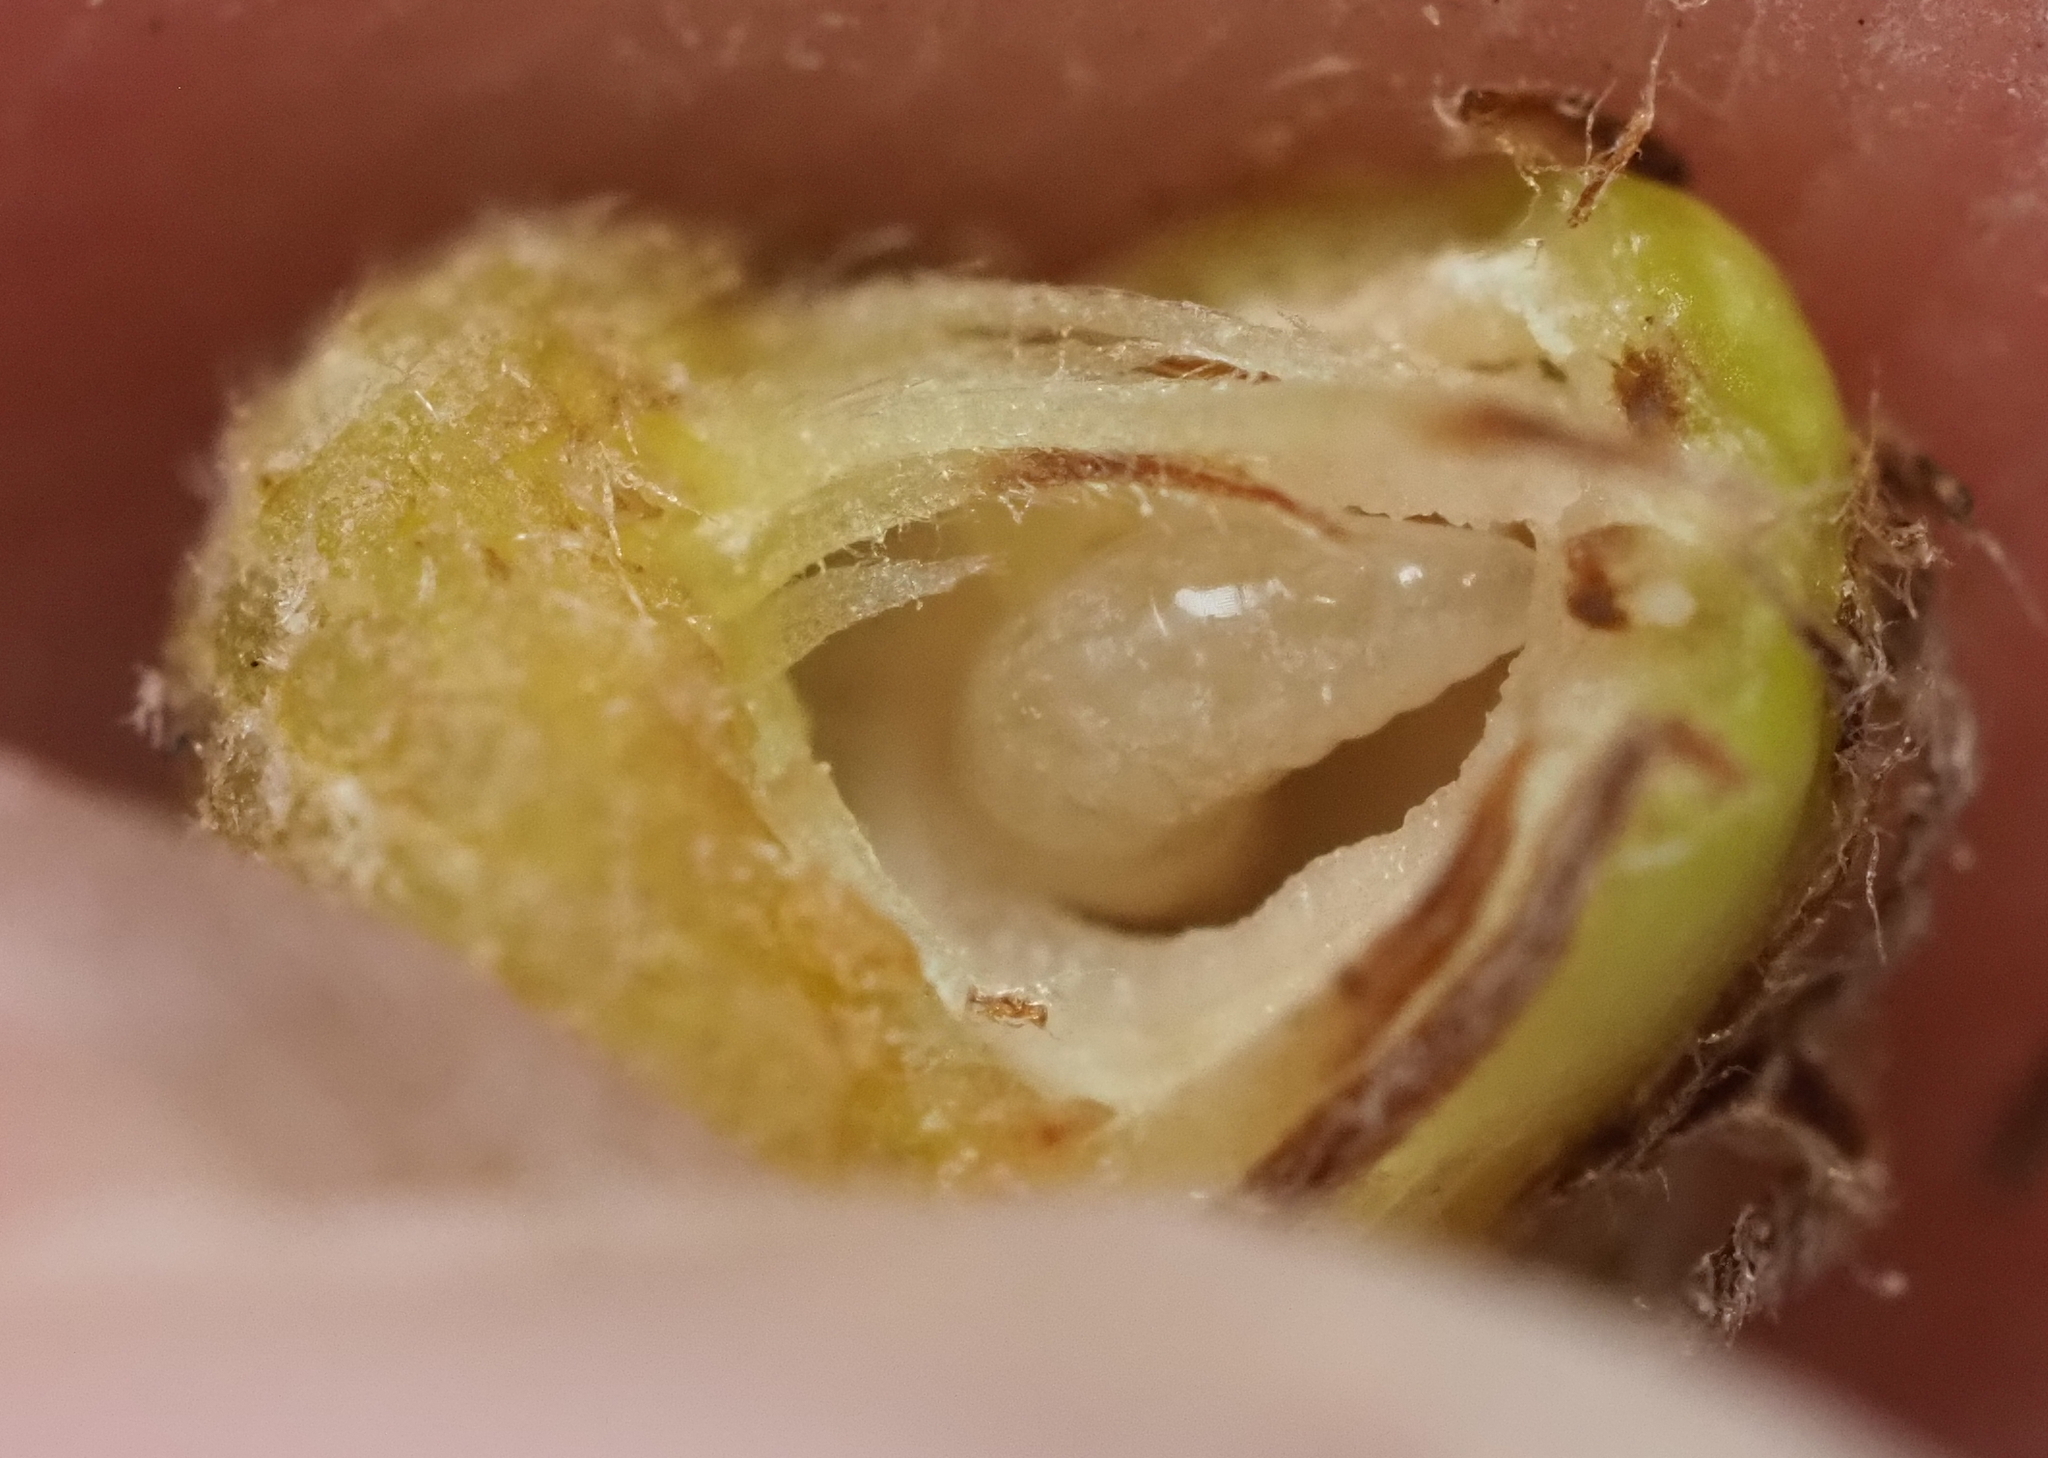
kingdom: Animalia
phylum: Arthropoda
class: Insecta
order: Hymenoptera
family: Cynipidae
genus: Andricus
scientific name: Andricus quercusfoliatus
